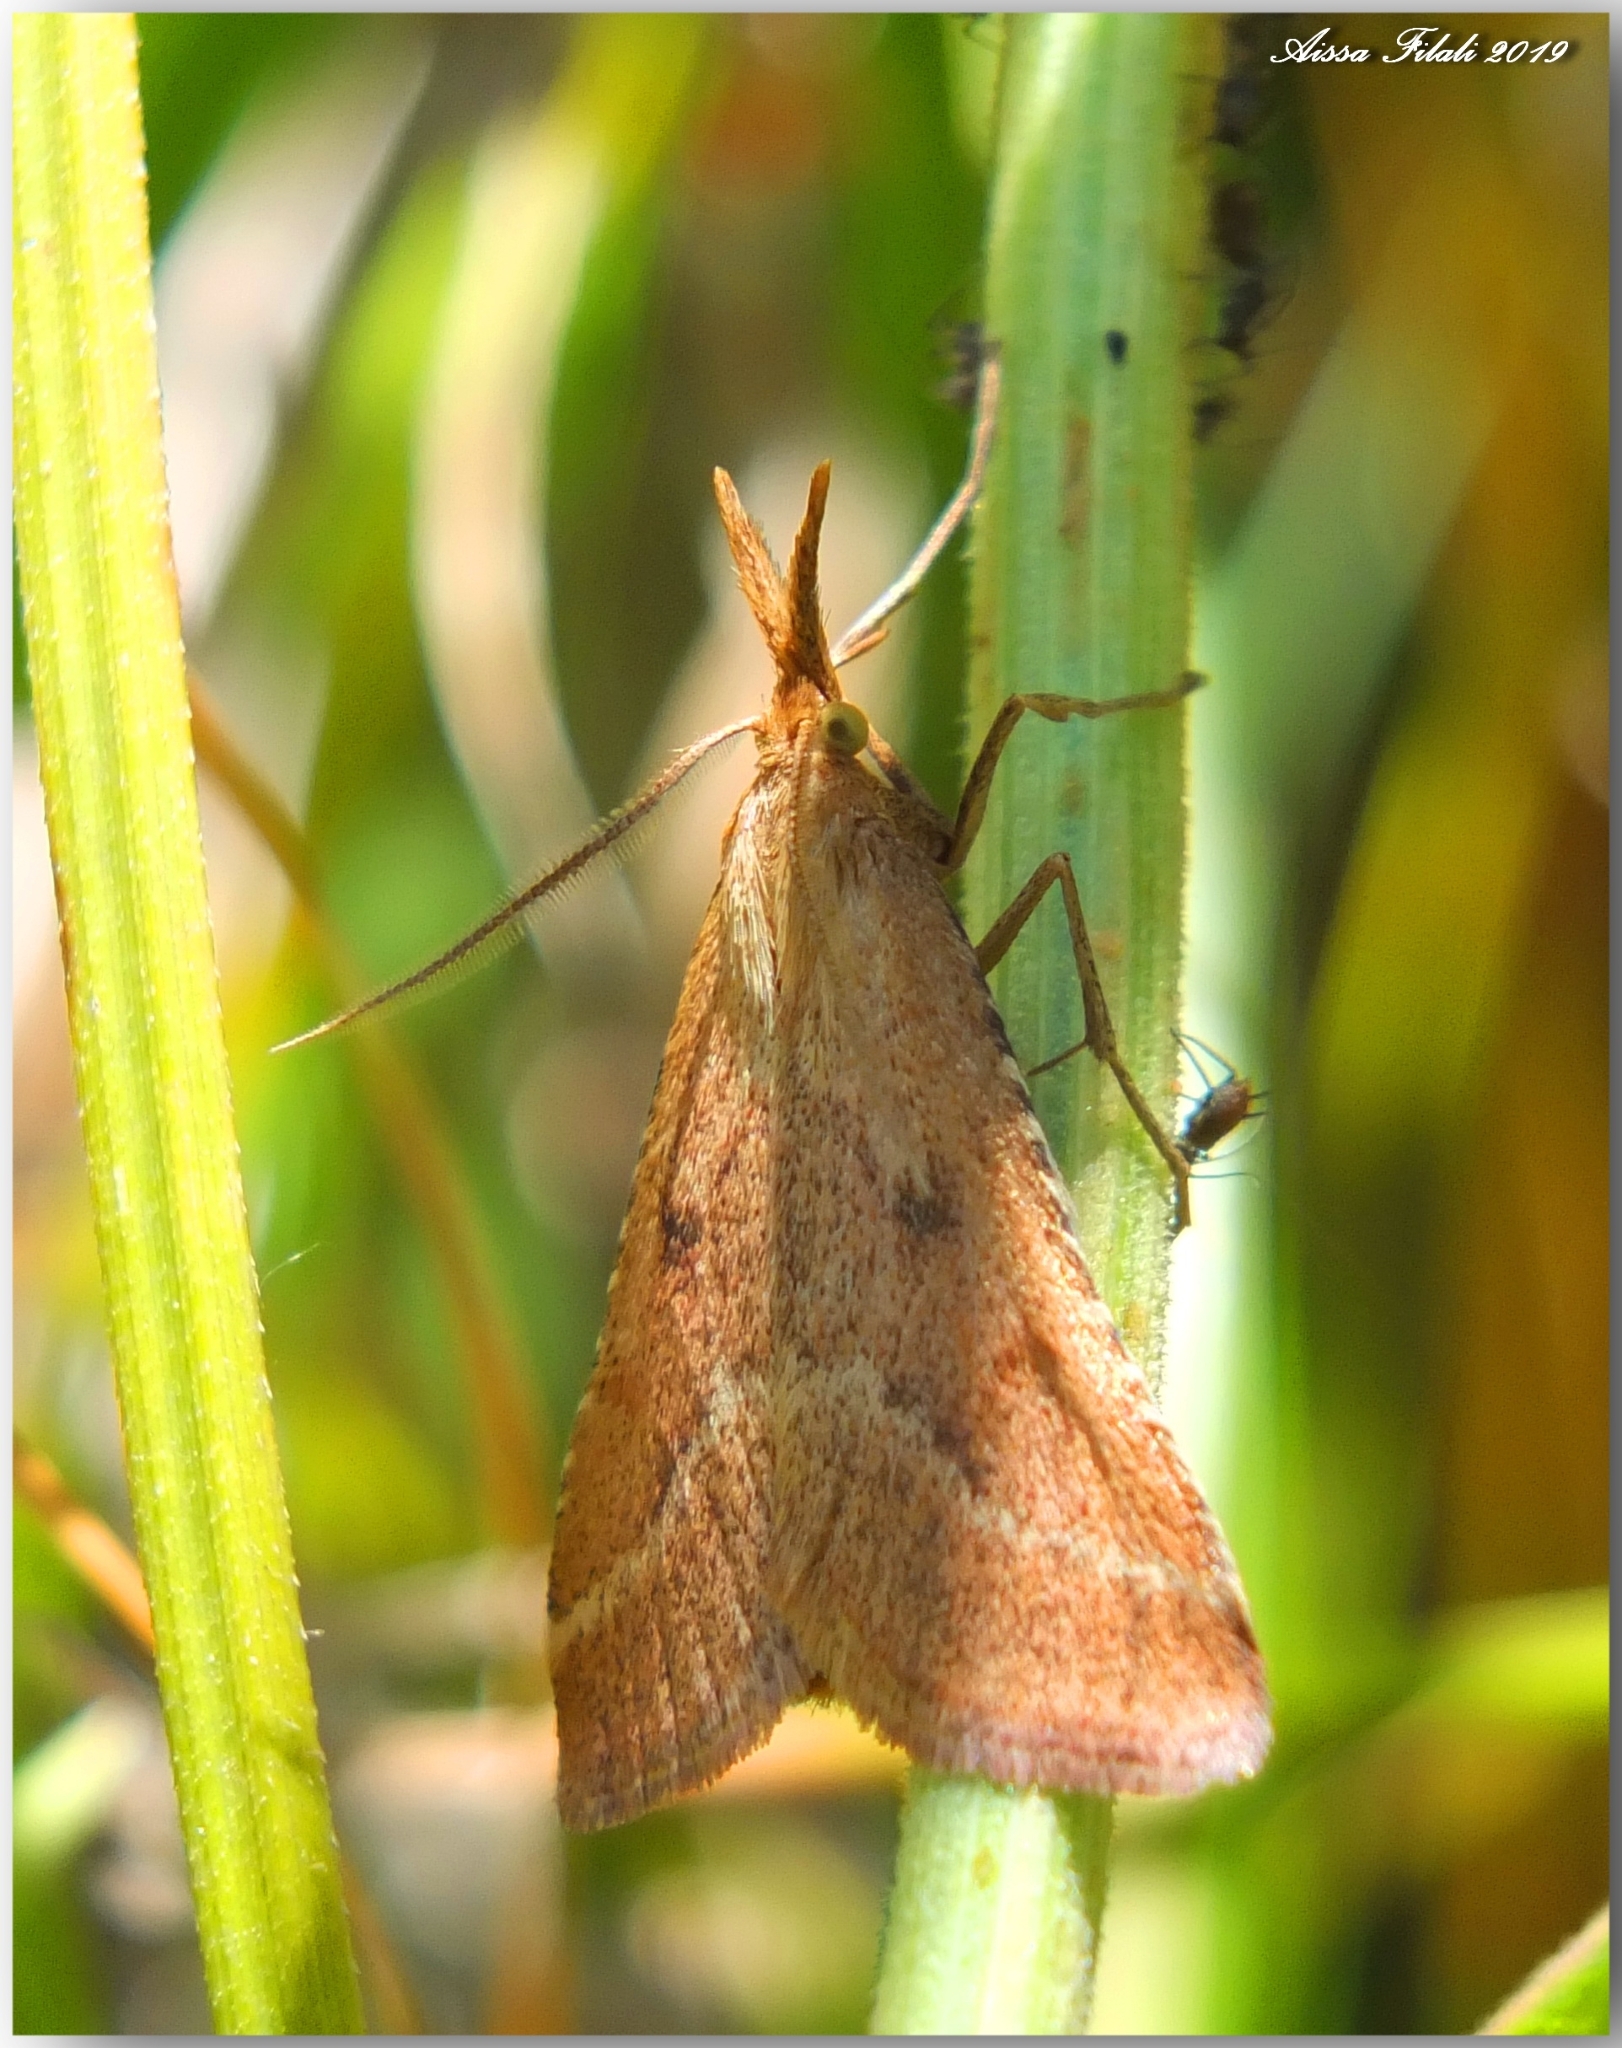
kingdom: Animalia
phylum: Arthropoda
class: Insecta
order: Lepidoptera
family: Pyralidae
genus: Synaphe
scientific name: Synaphe punctalis
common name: Long-legged tabby
